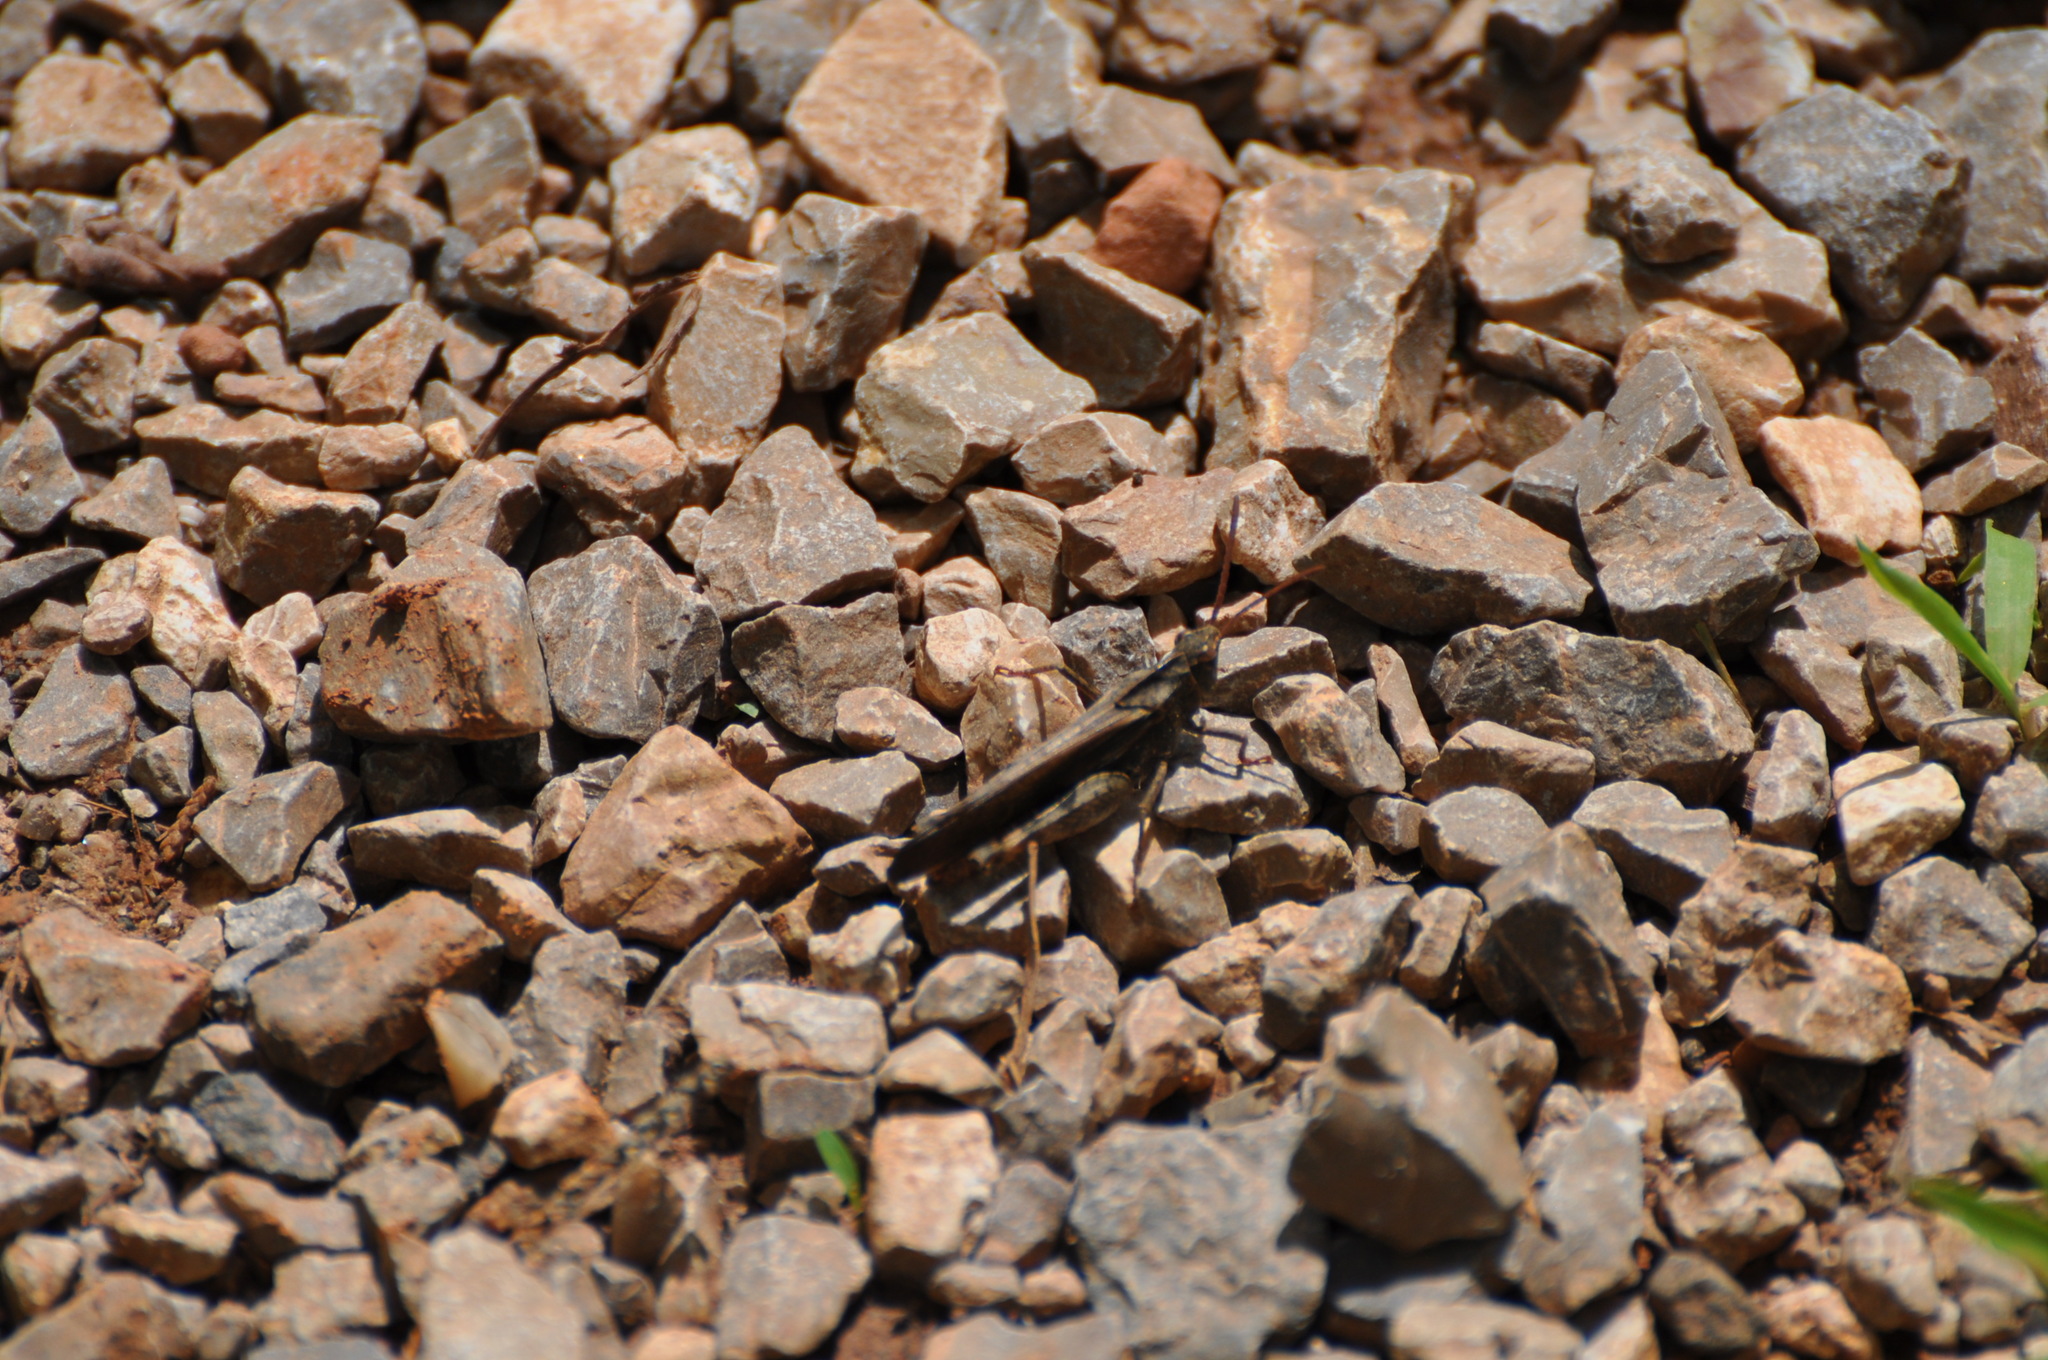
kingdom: Animalia
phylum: Arthropoda
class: Insecta
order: Orthoptera
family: Acrididae
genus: Chortophaga
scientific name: Chortophaga viridifasciata
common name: Green-striped grasshopper
